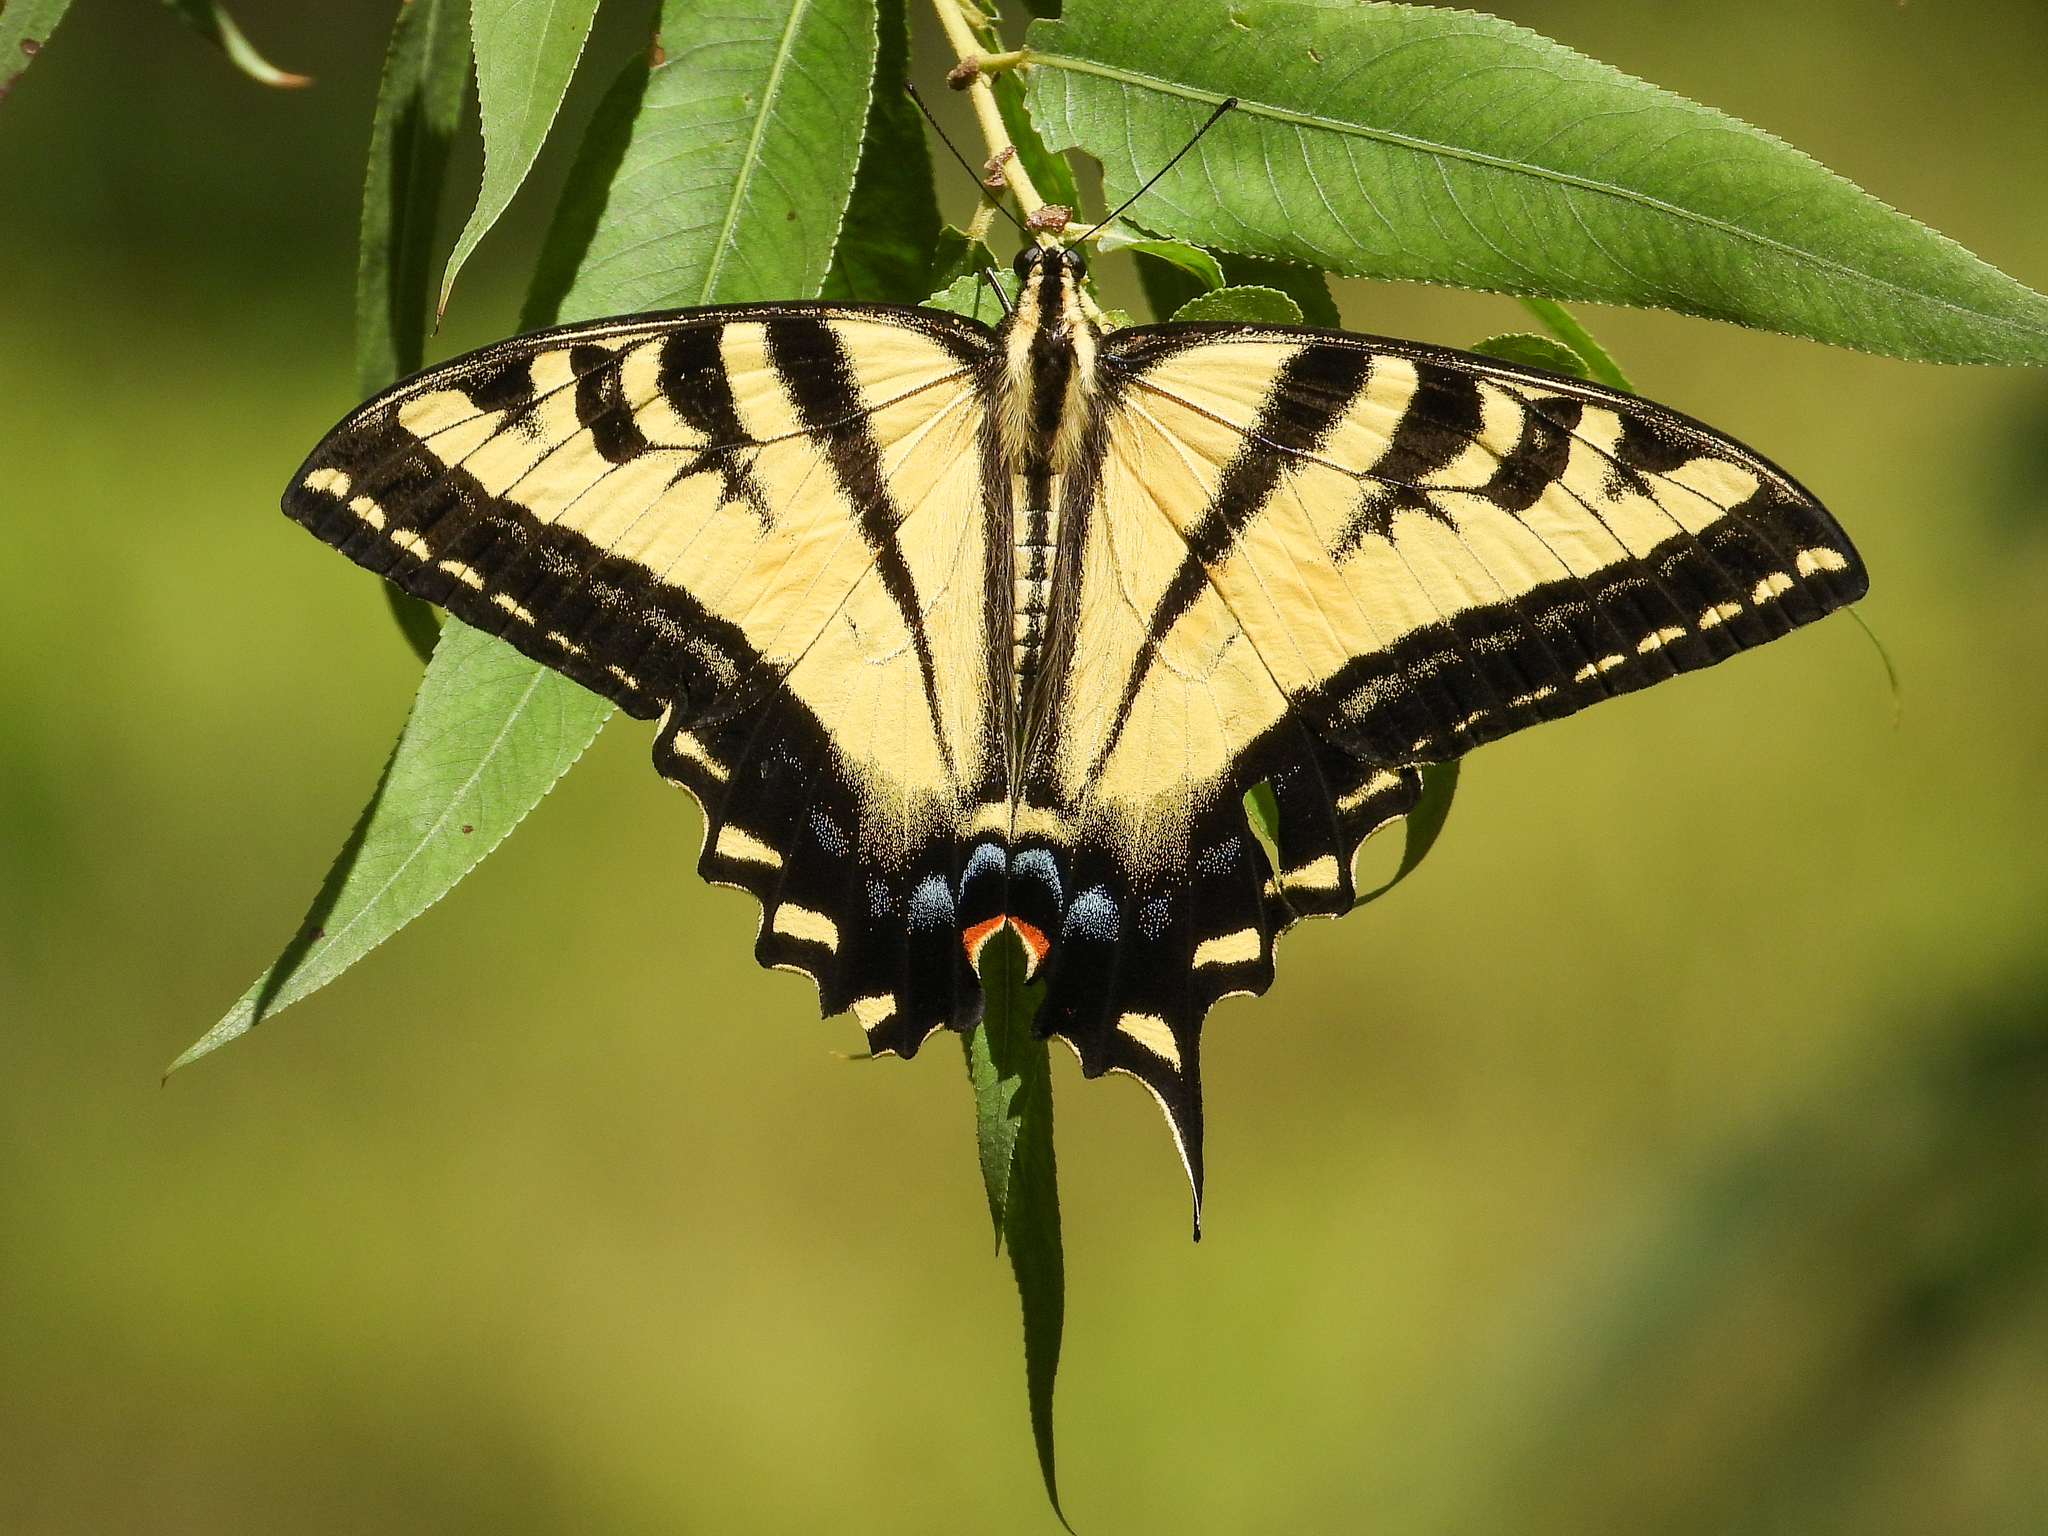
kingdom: Animalia
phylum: Arthropoda
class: Insecta
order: Lepidoptera
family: Papilionidae
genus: Papilio
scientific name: Papilio rutulus
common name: Western tiger swallowtail
